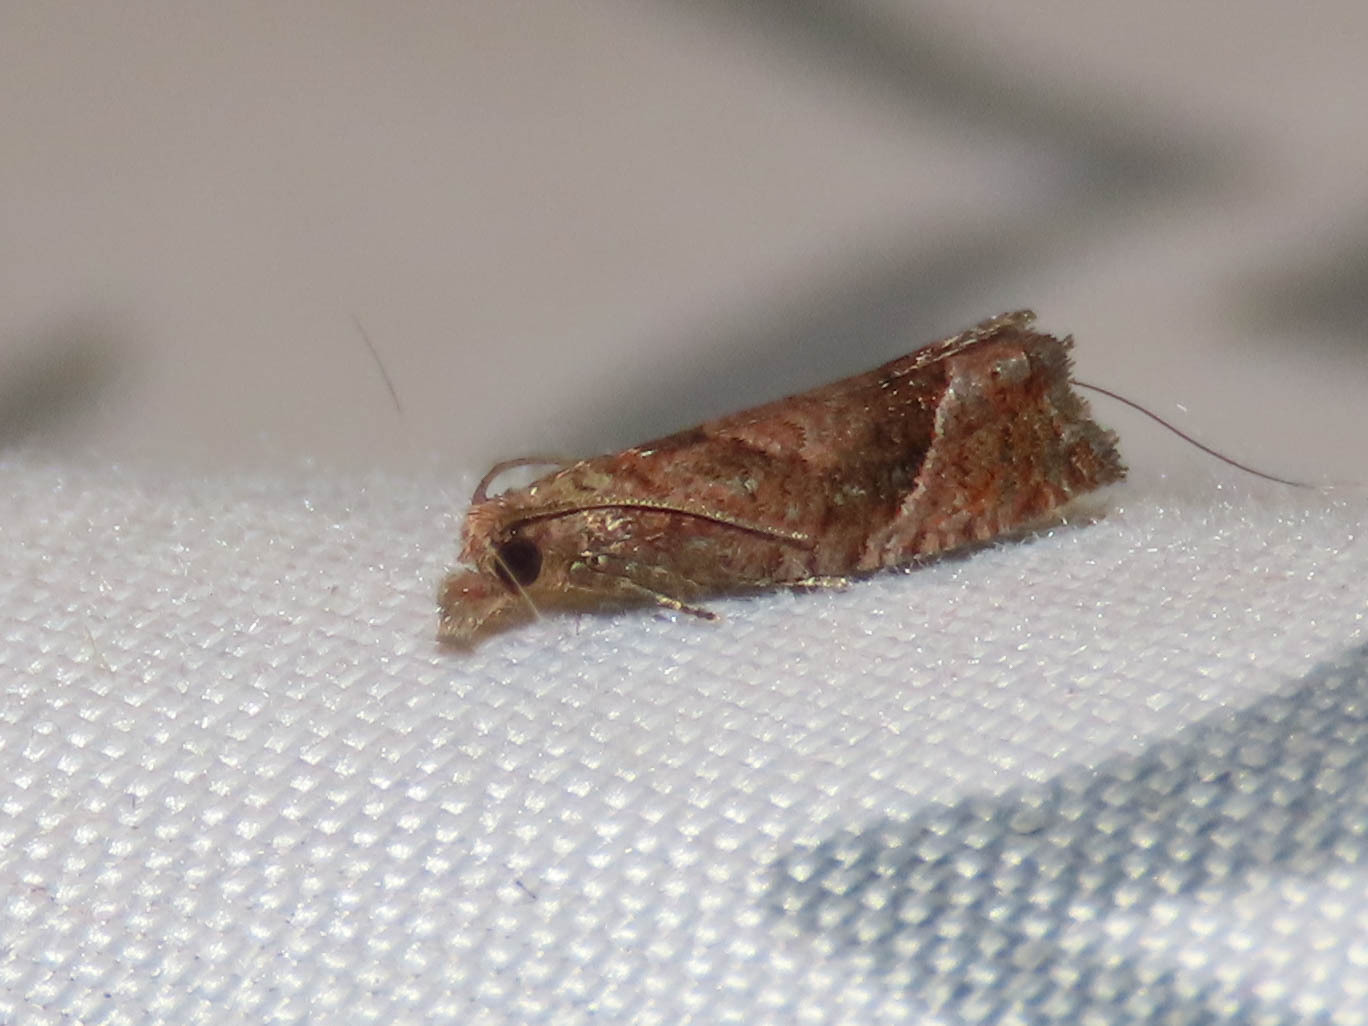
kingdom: Animalia
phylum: Arthropoda
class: Insecta
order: Lepidoptera
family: Tortricidae
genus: Pelochrista
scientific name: Pelochrista derelicta
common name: Derelict pelochrista moth
